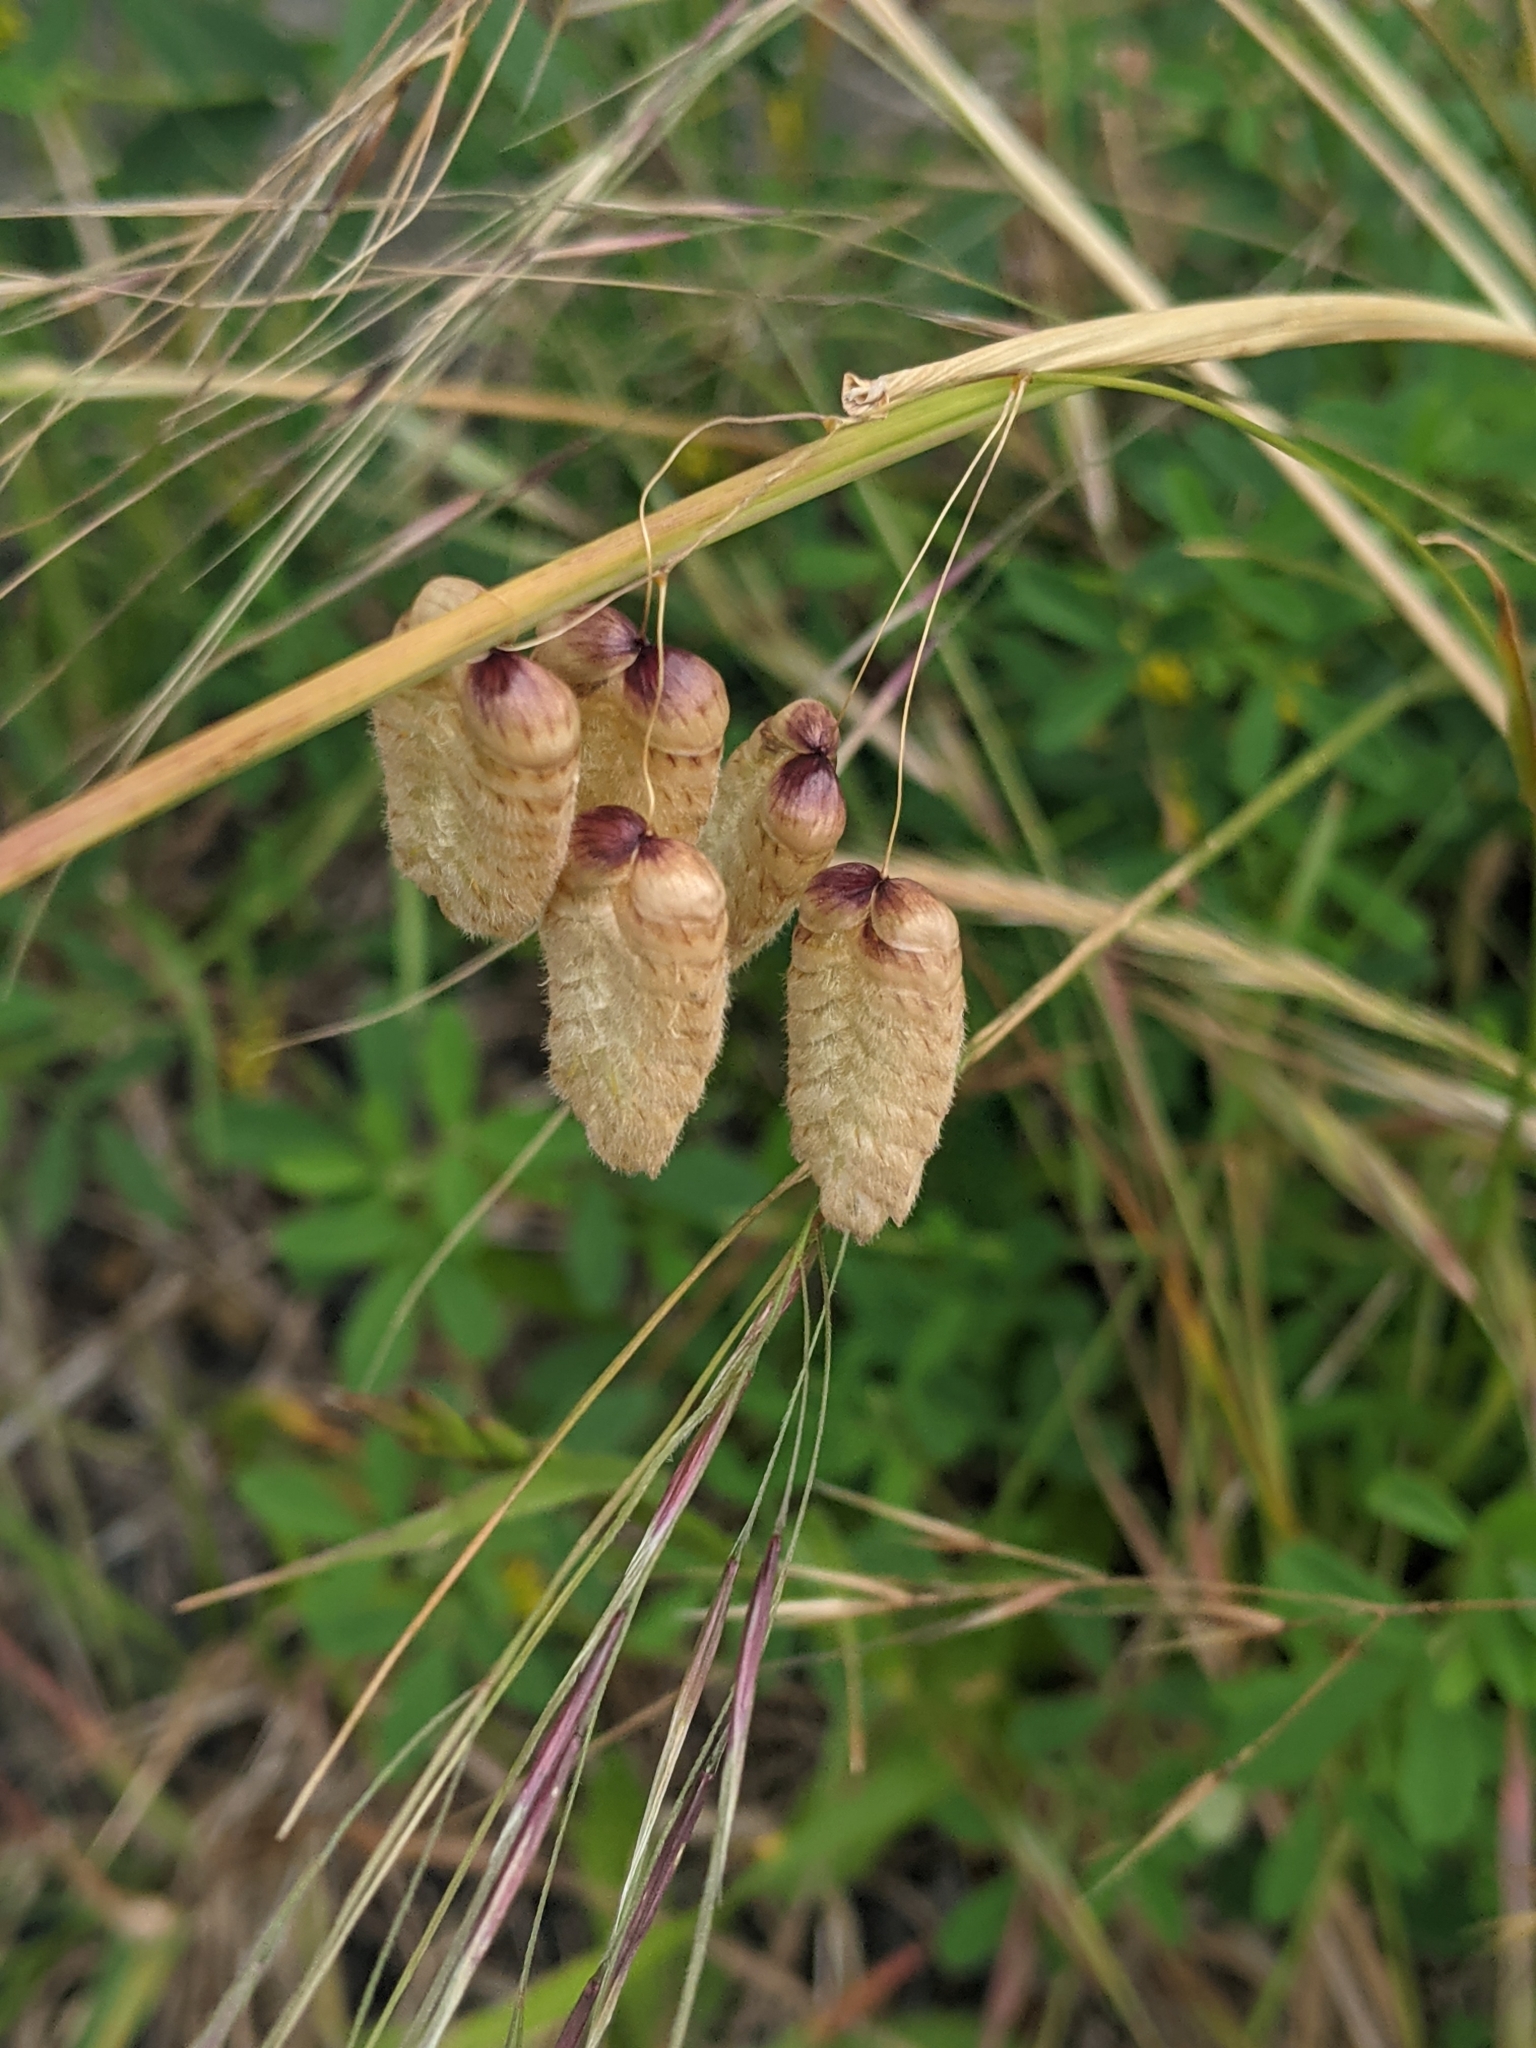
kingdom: Plantae
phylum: Tracheophyta
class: Liliopsida
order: Poales
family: Poaceae
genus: Briza
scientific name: Briza maxima
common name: Big quakinggrass
